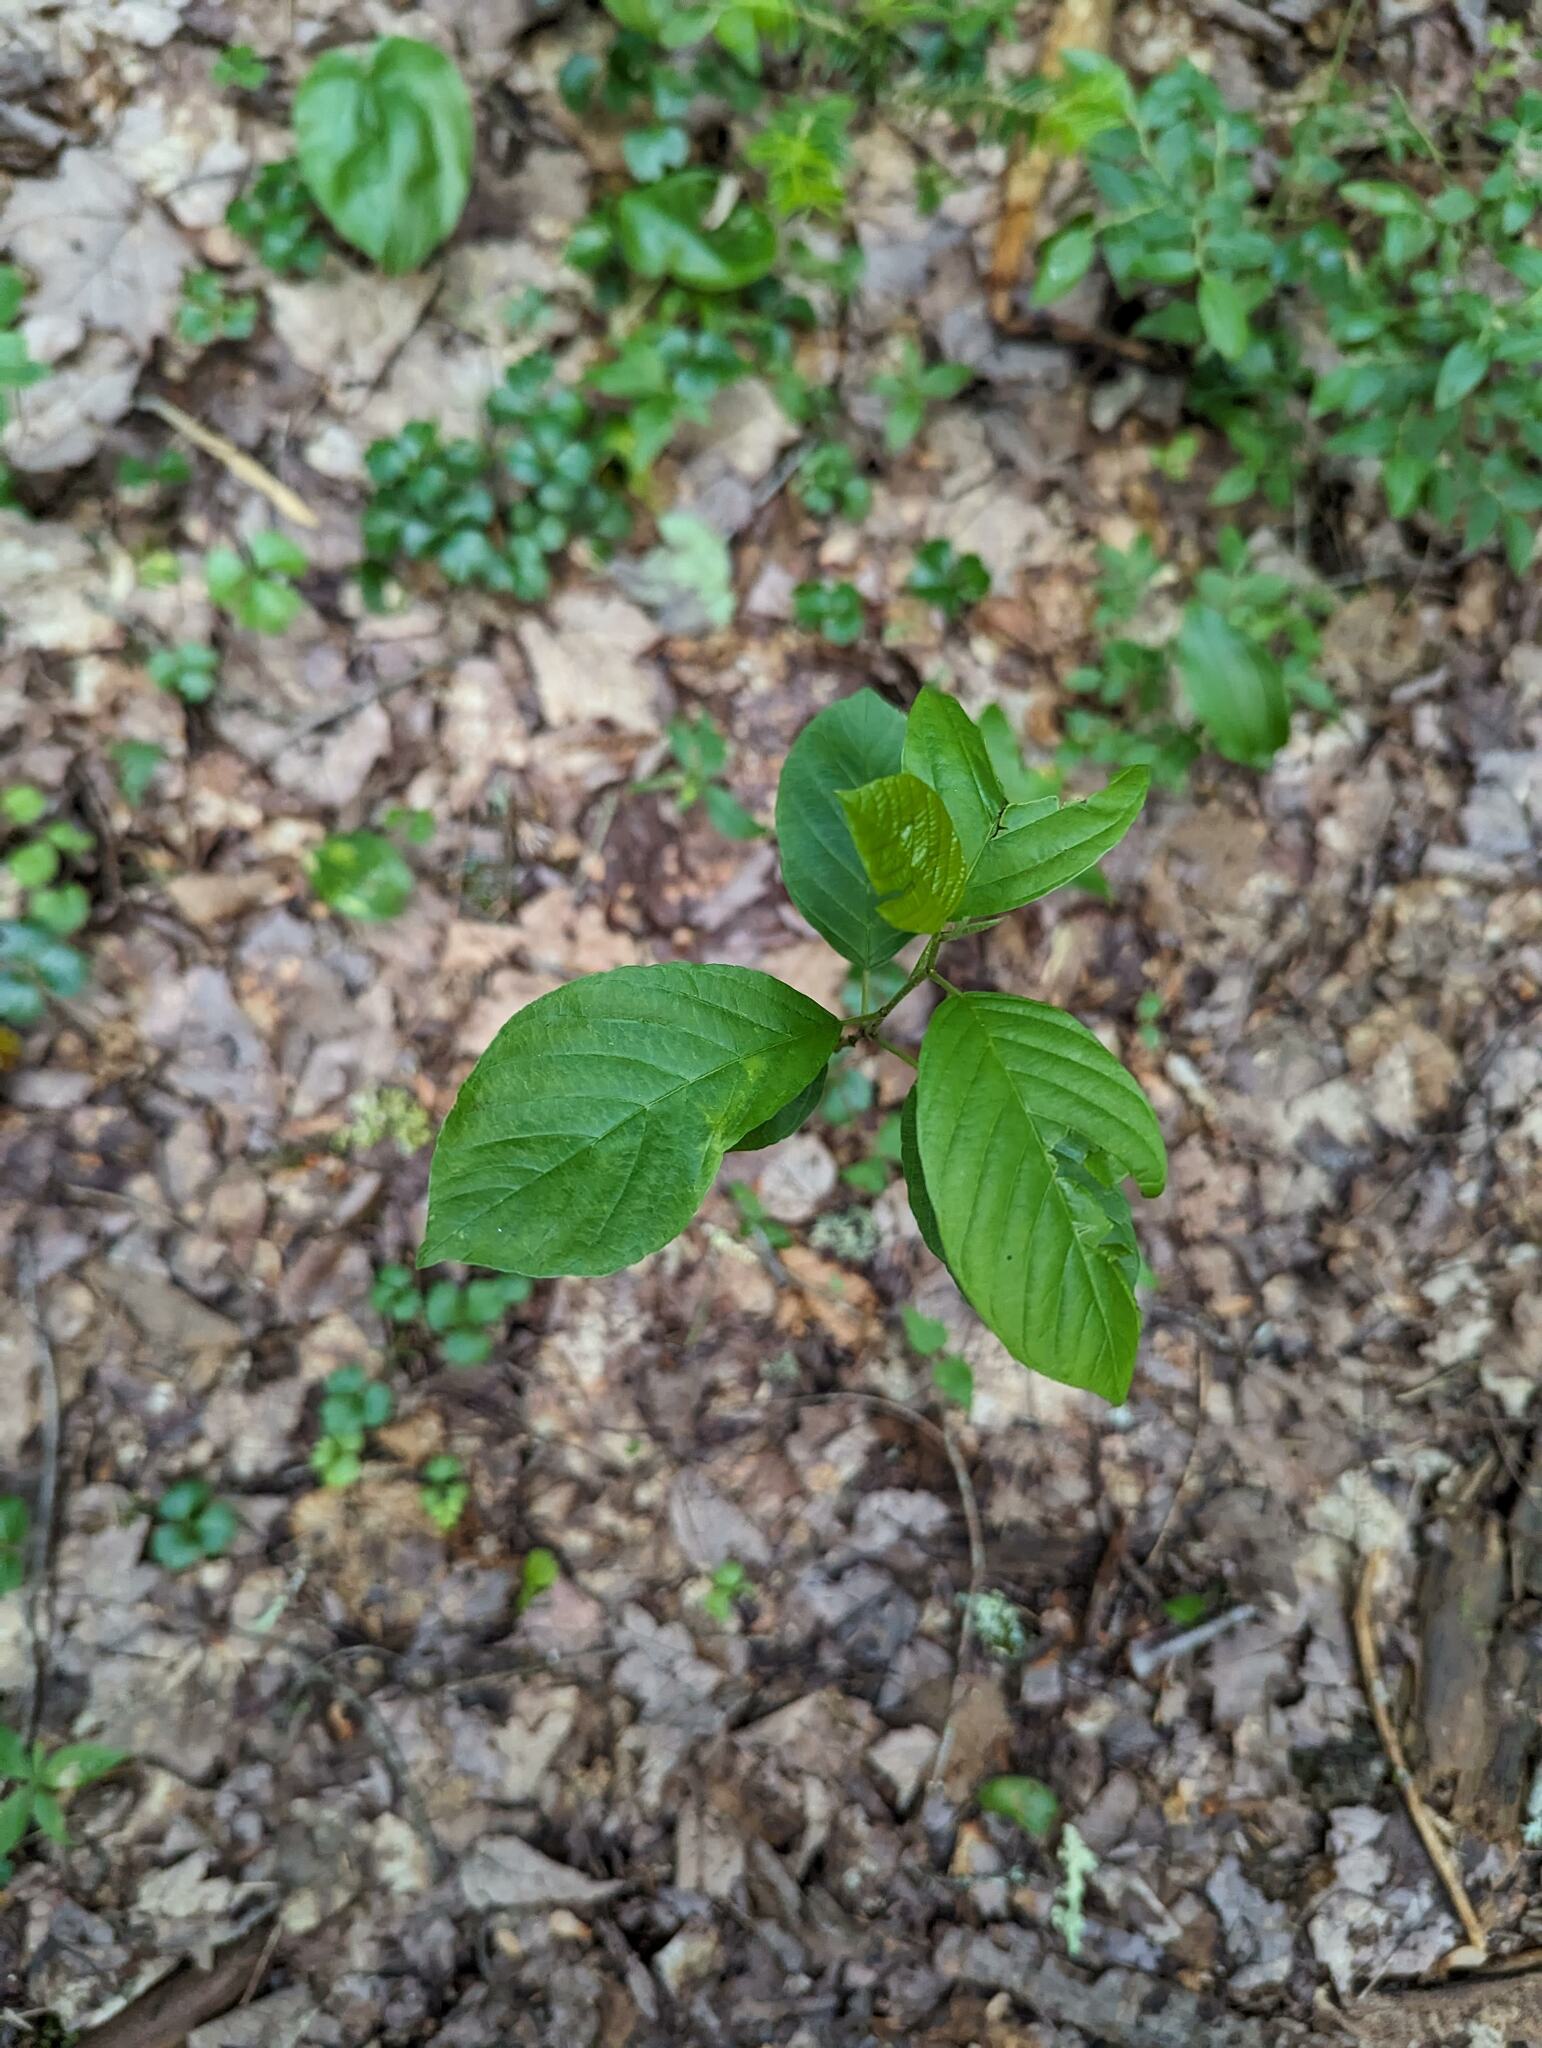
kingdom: Plantae
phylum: Tracheophyta
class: Magnoliopsida
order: Rosales
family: Rhamnaceae
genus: Frangula
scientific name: Frangula alnus
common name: Alder buckthorn
